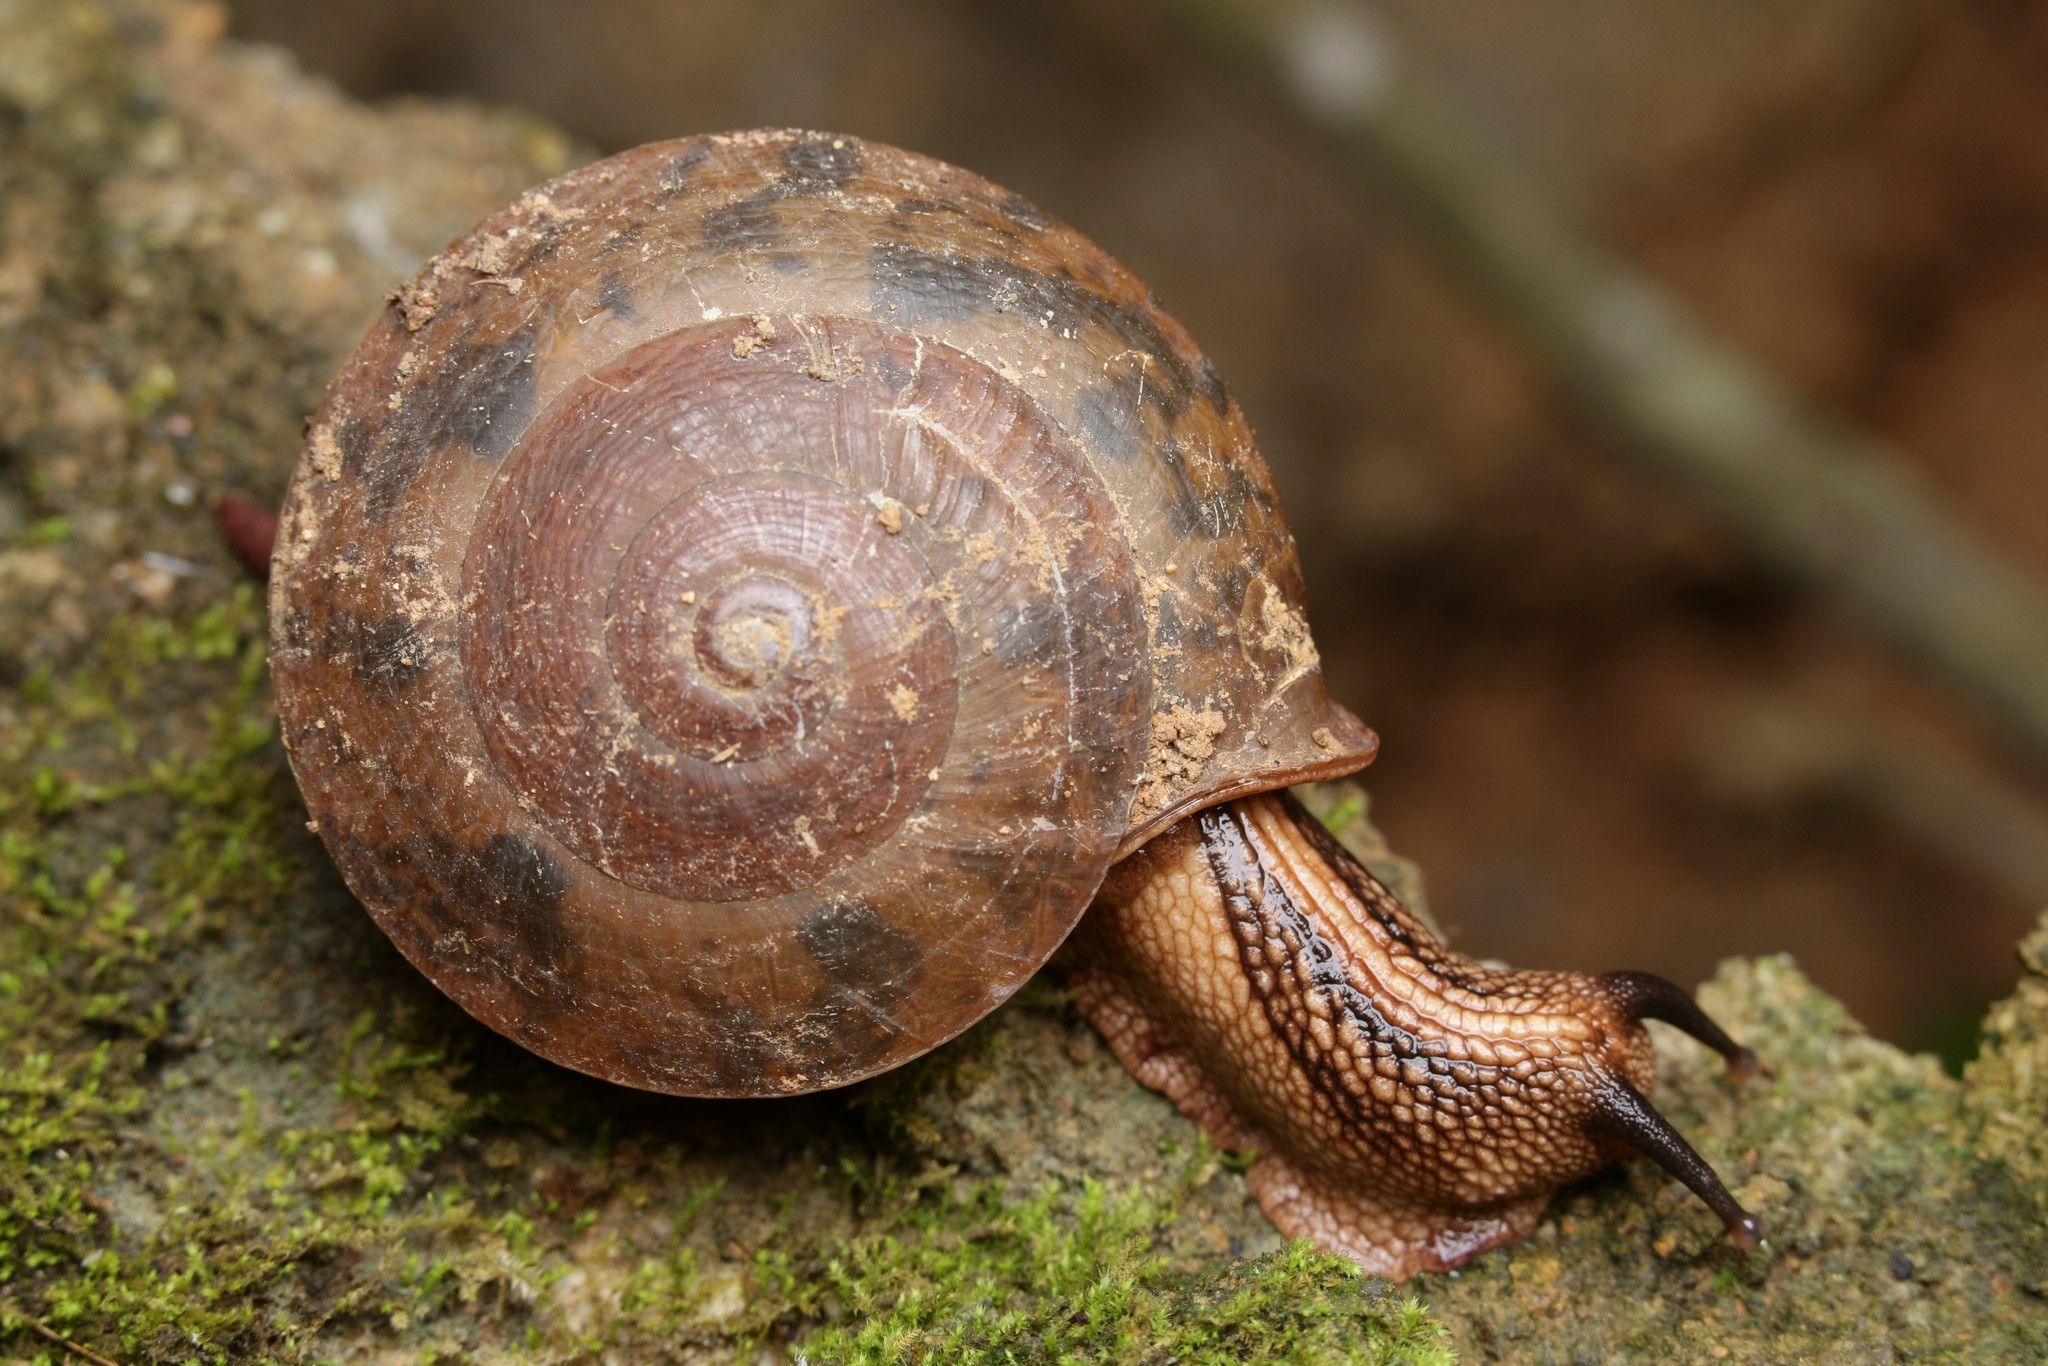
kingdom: Animalia
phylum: Mollusca
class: Gastropoda
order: Stylommatophora
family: Camaenidae
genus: Camaena
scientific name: Camaena
